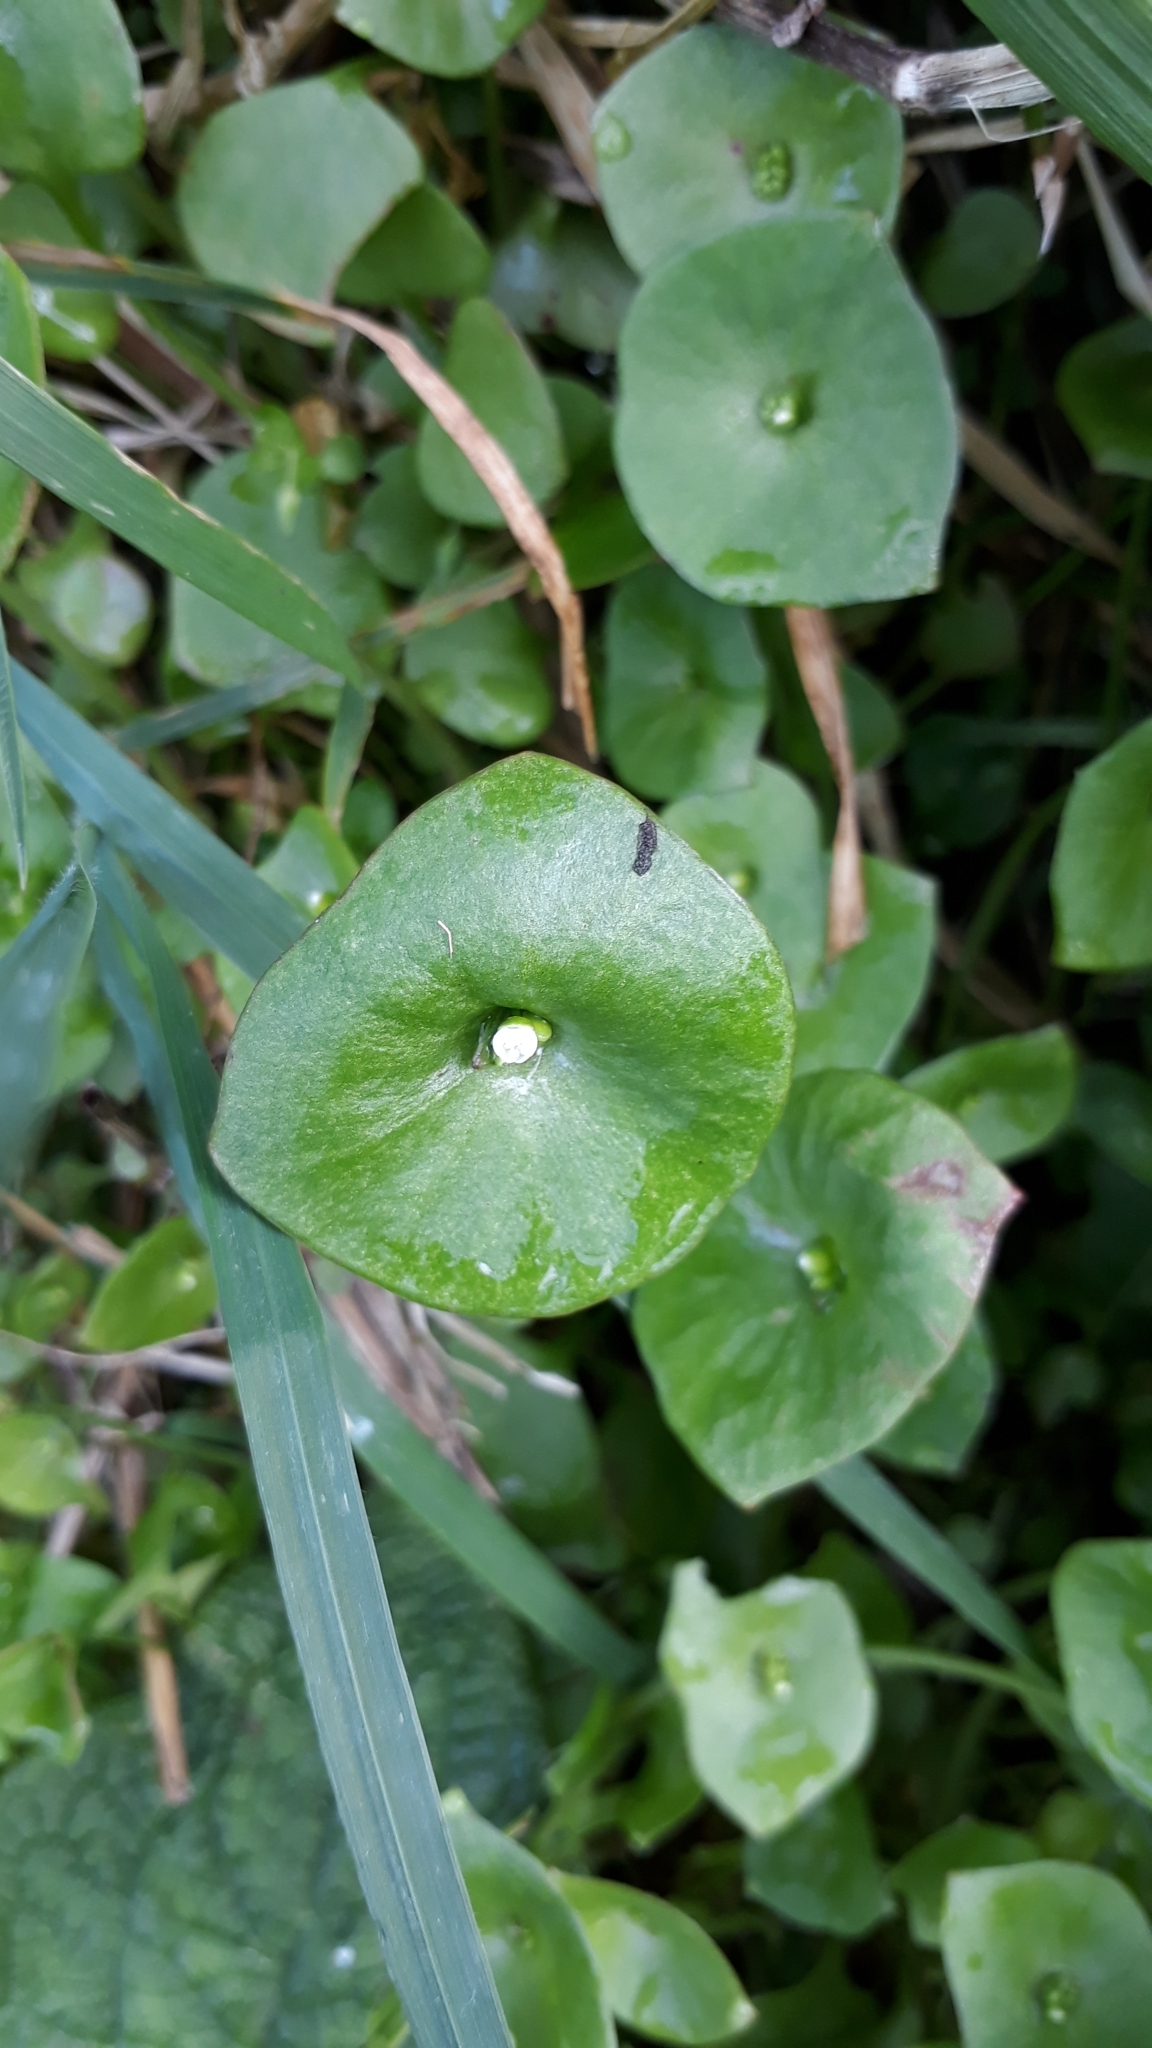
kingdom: Plantae
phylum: Tracheophyta
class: Magnoliopsida
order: Caryophyllales
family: Montiaceae
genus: Claytonia
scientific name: Claytonia perfoliata
